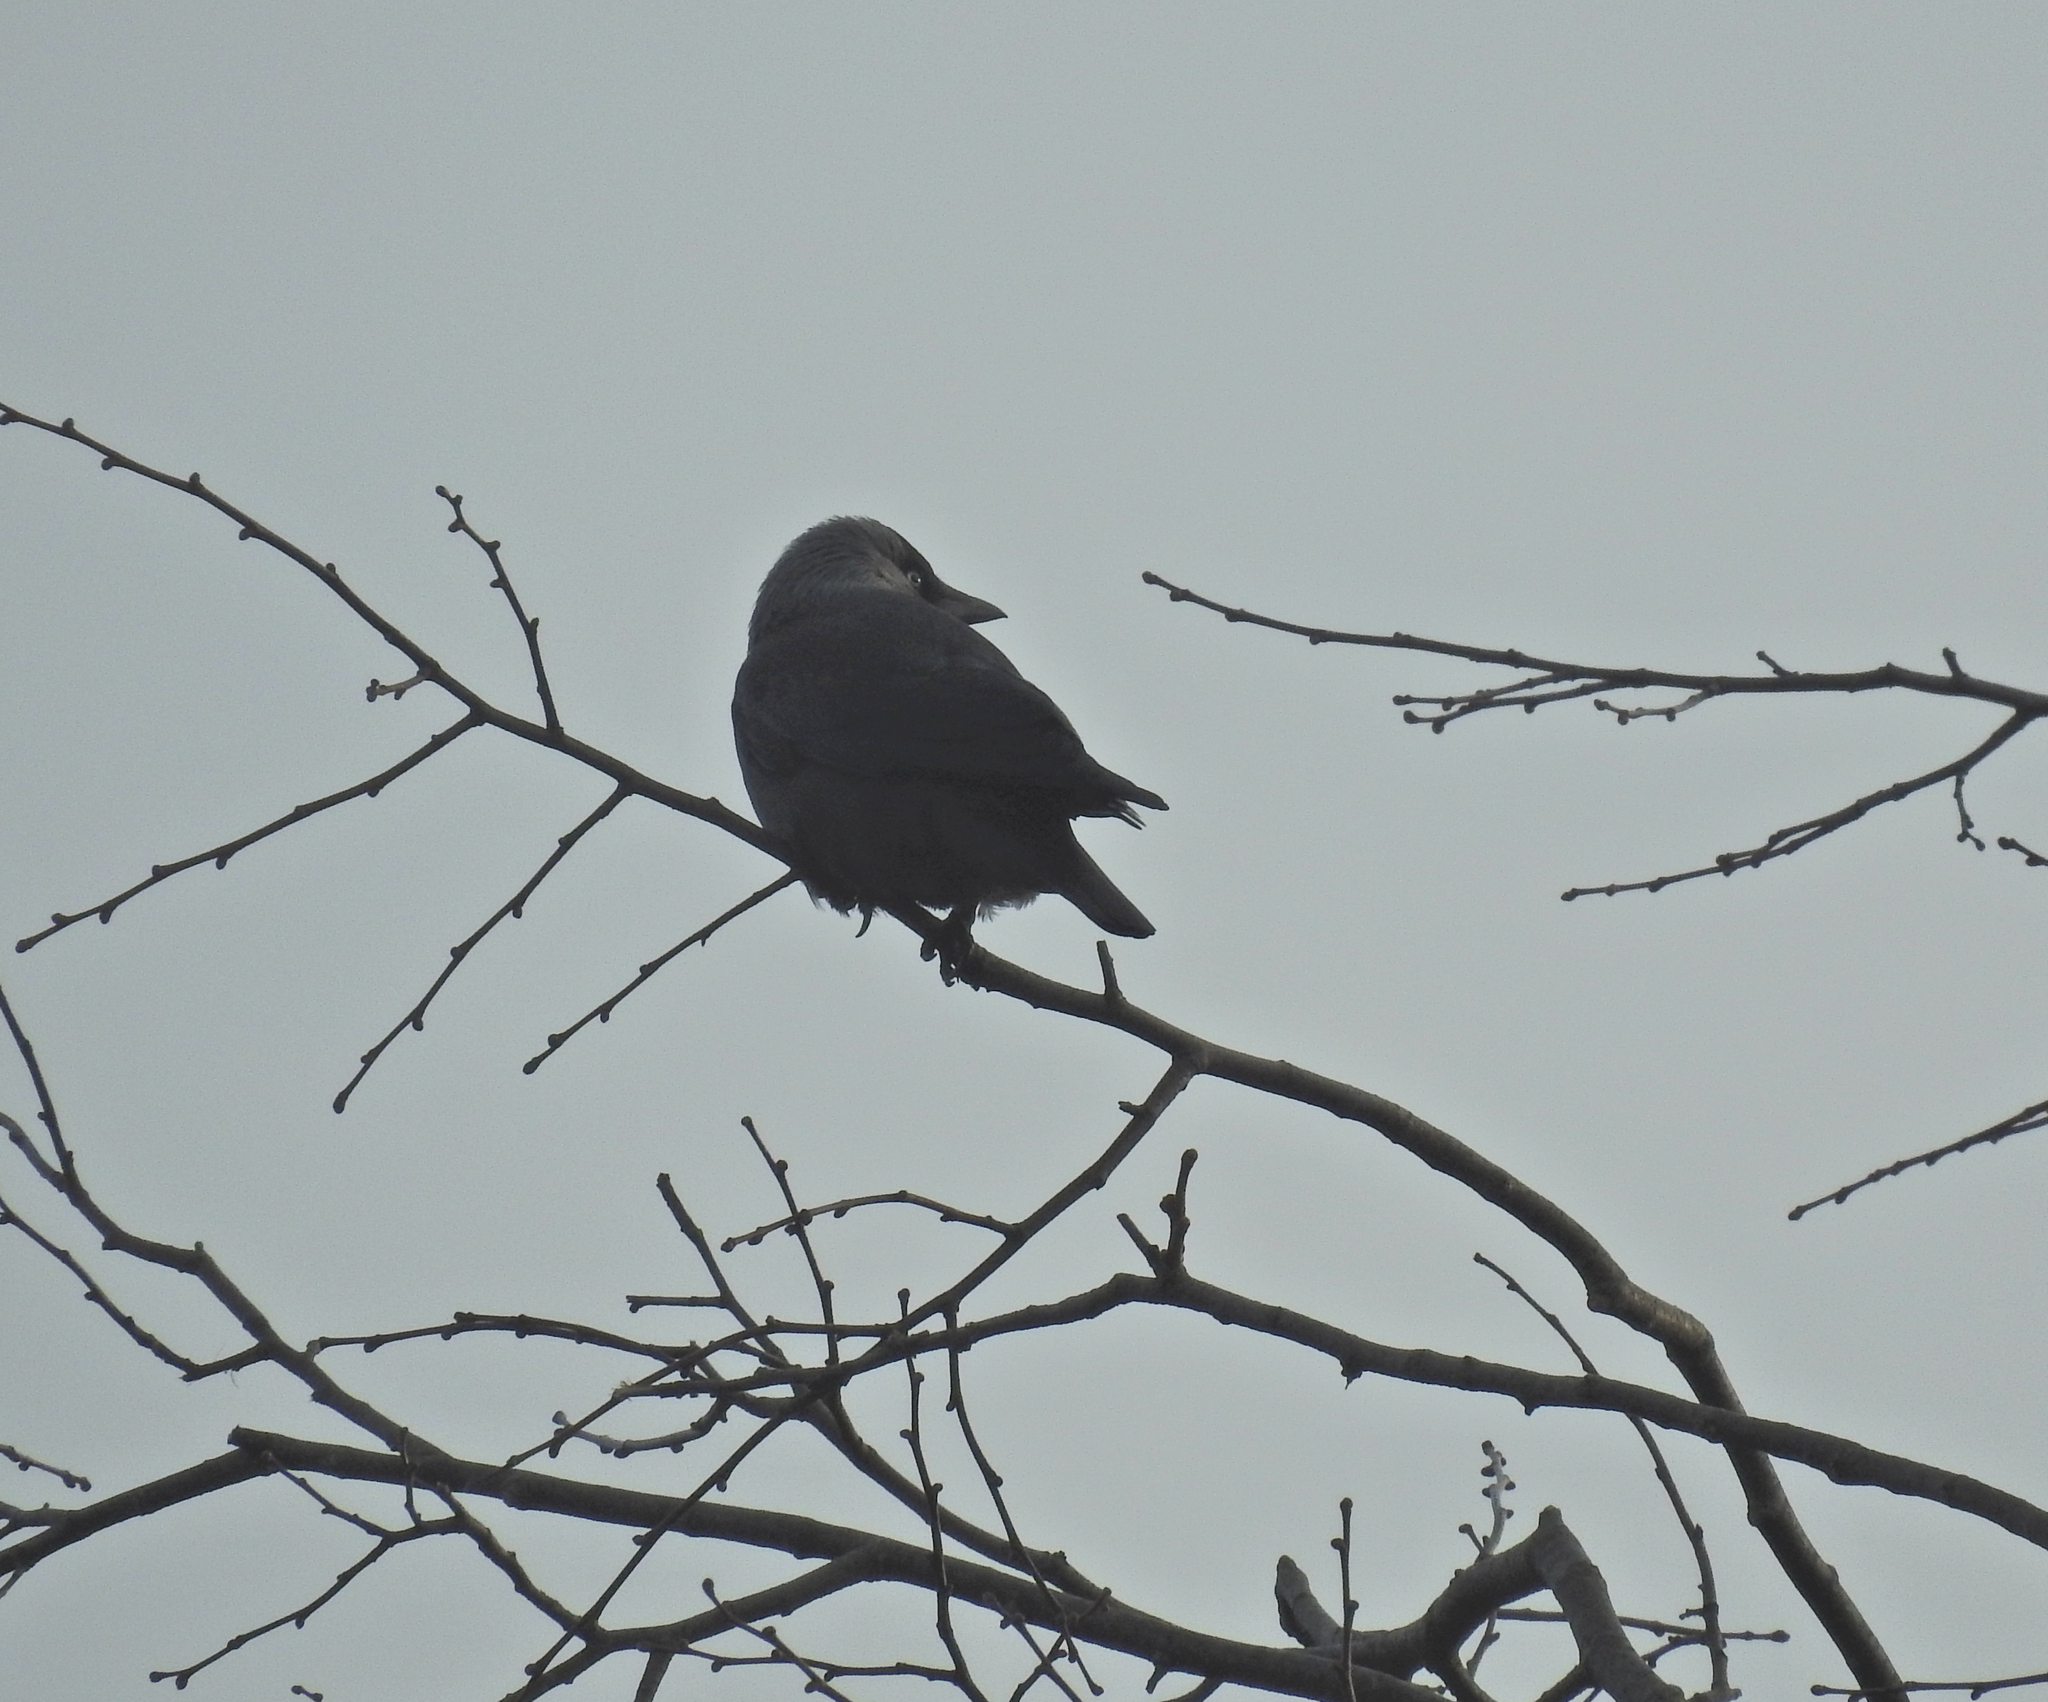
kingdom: Animalia
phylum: Chordata
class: Aves
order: Passeriformes
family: Corvidae
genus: Coloeus
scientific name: Coloeus monedula
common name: Western jackdaw
